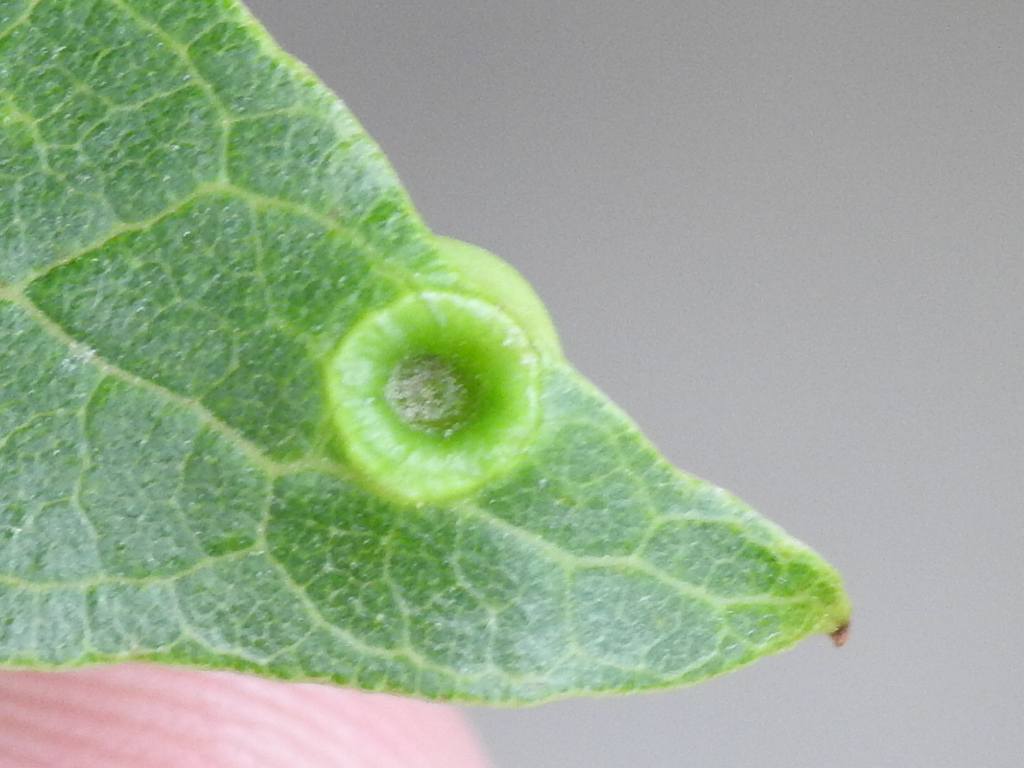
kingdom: Animalia
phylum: Arthropoda
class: Insecta
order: Hemiptera
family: Aphalaridae
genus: Pachypsylla
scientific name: Pachypsylla celtidismamma
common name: Hackberry nipplegall psyllid
